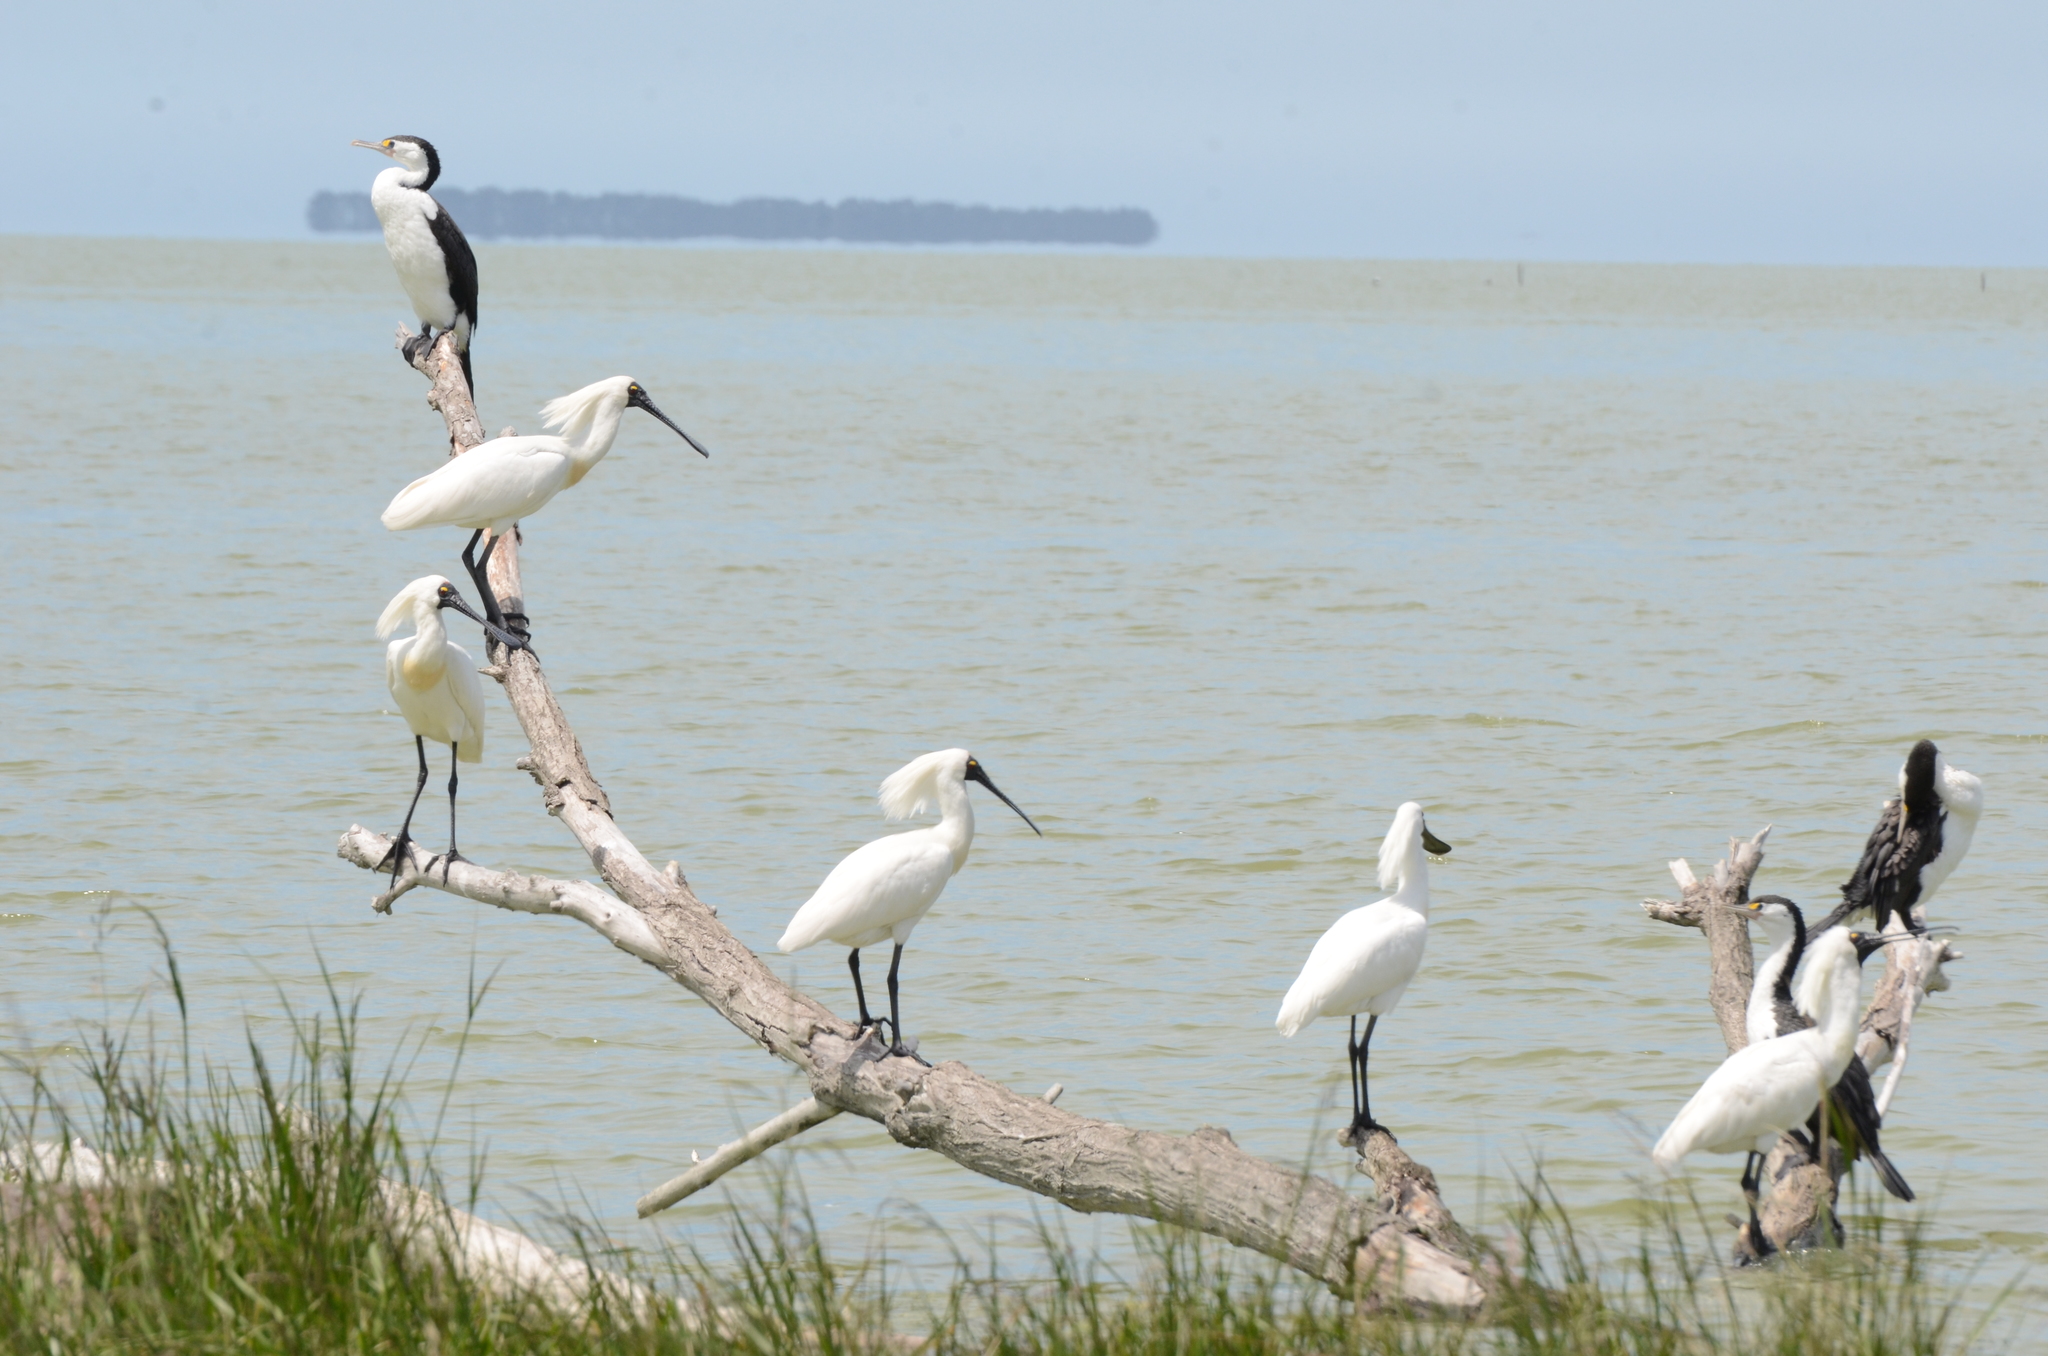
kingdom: Animalia
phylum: Chordata
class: Aves
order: Pelecaniformes
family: Threskiornithidae
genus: Platalea
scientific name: Platalea regia
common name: Royal spoonbill
